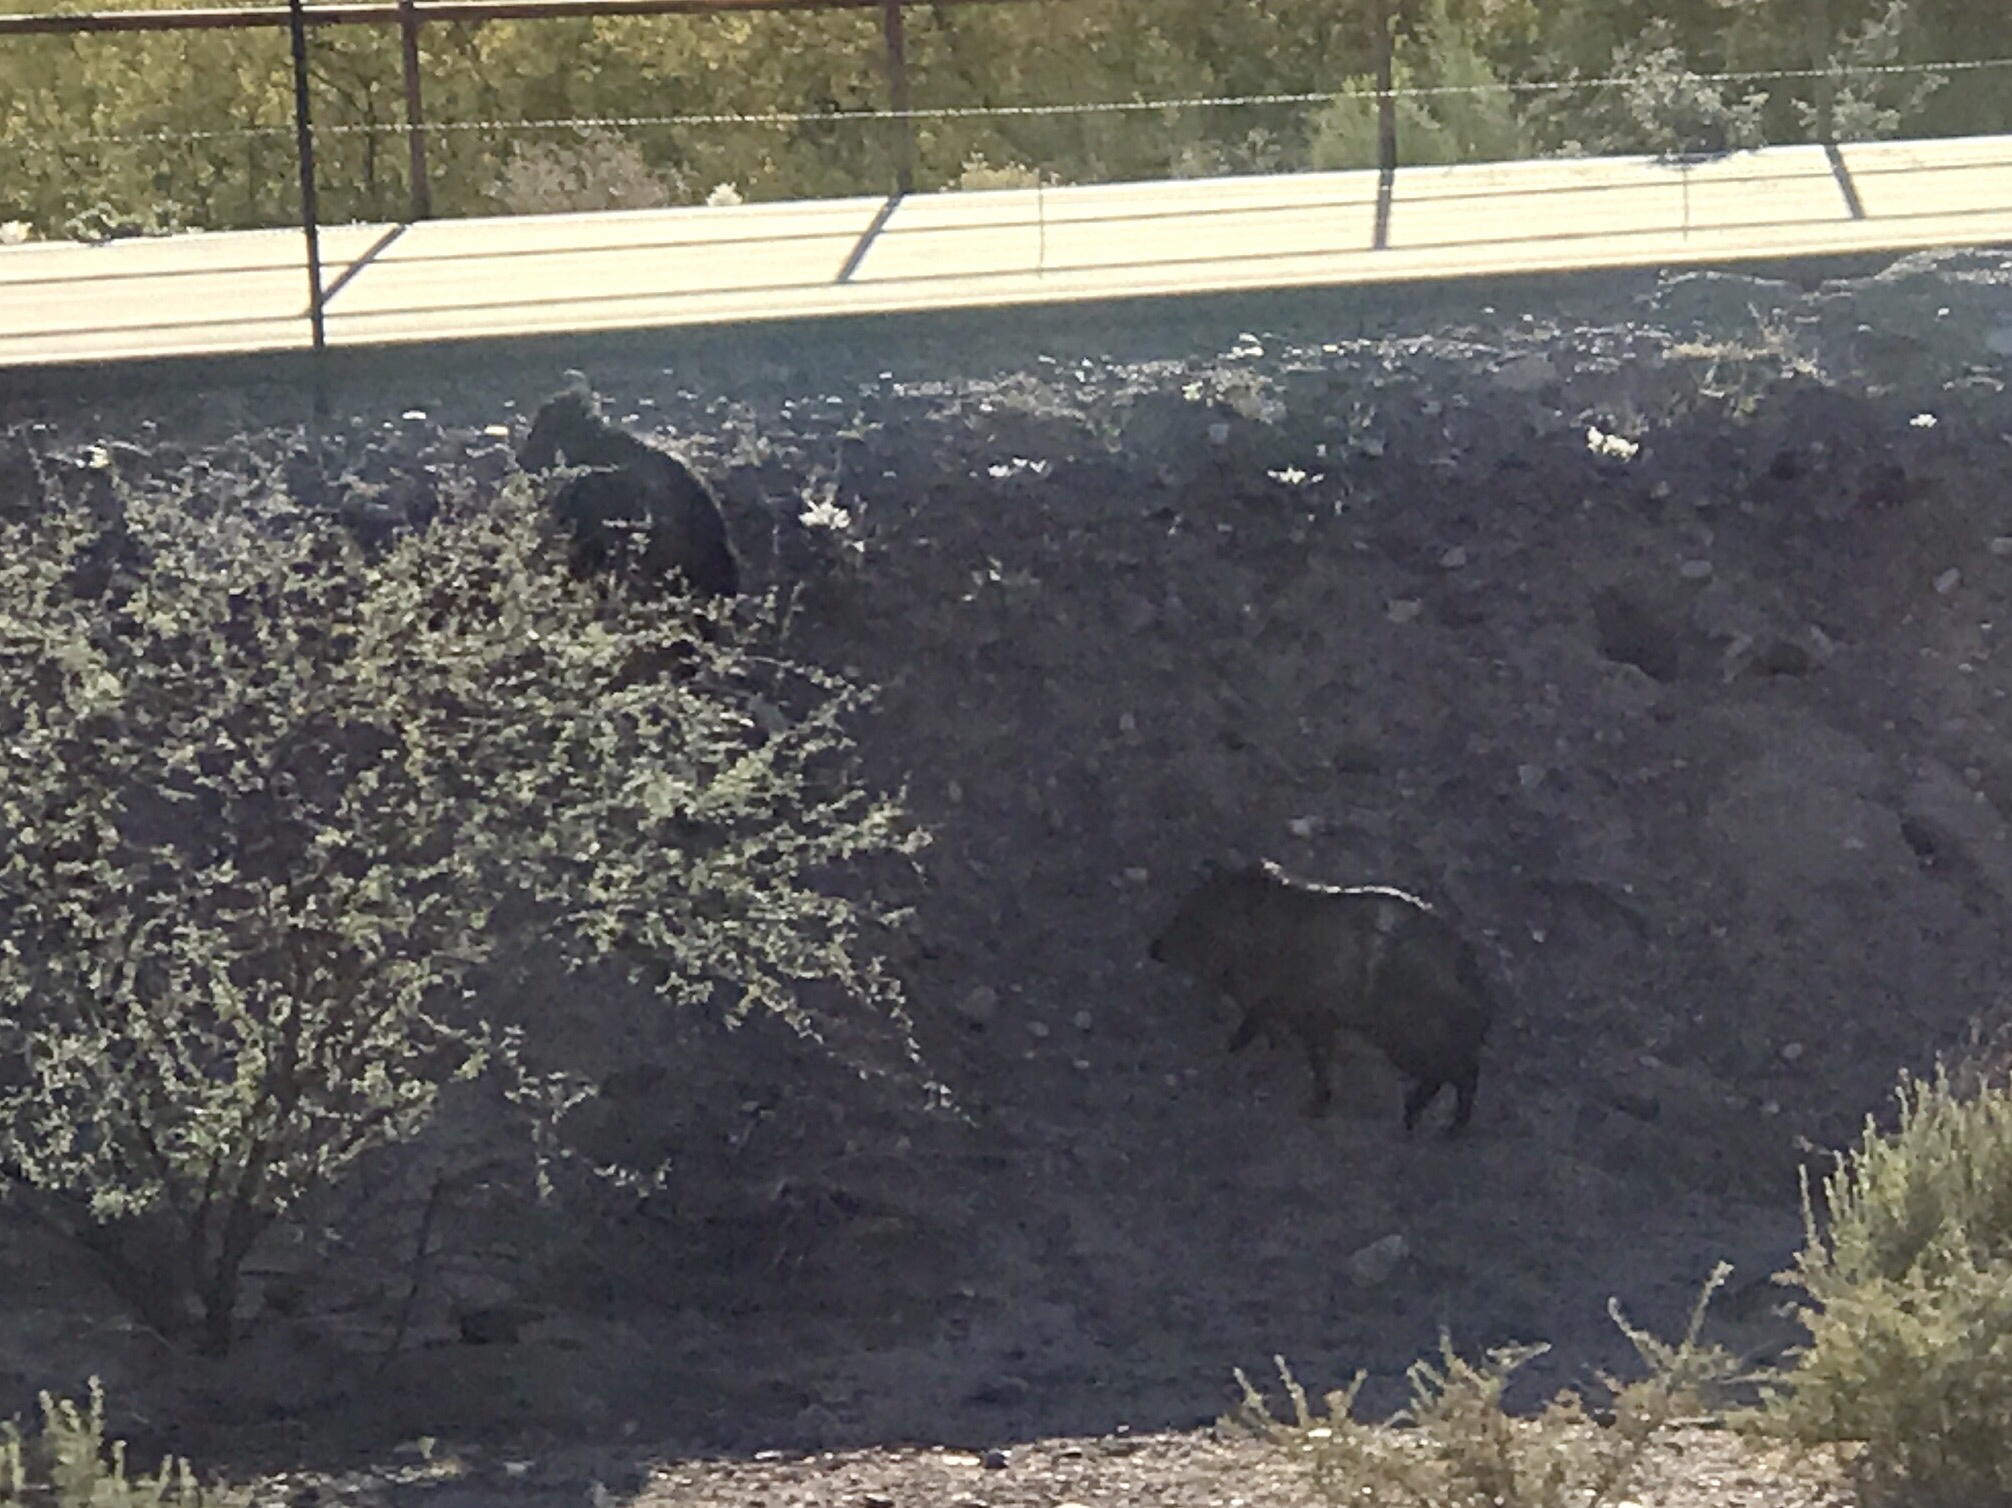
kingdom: Animalia
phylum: Chordata
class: Mammalia
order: Artiodactyla
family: Tayassuidae
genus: Pecari
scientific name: Pecari tajacu
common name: Collared peccary
